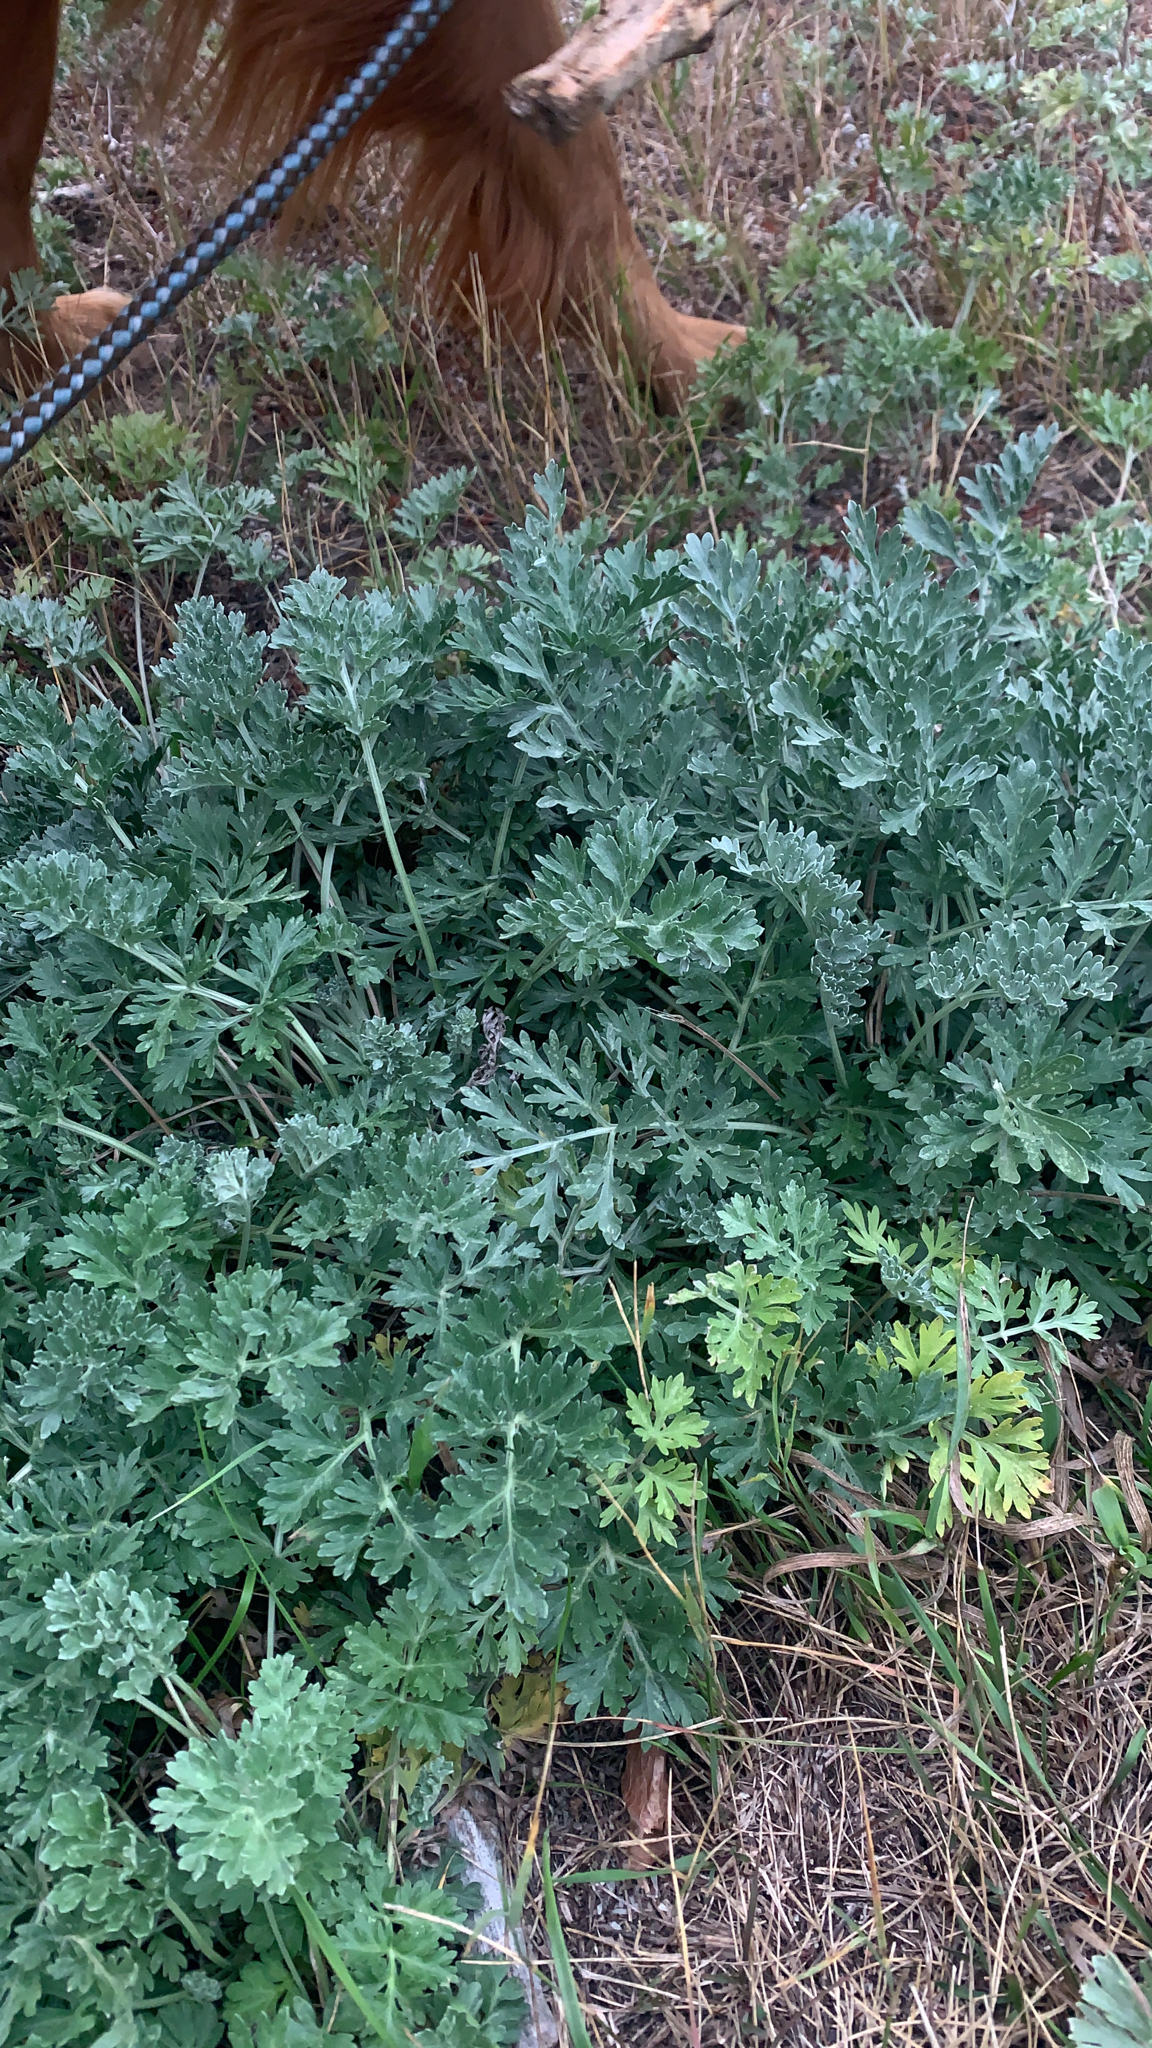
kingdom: Plantae
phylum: Tracheophyta
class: Magnoliopsida
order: Asterales
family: Asteraceae
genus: Artemisia
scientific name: Artemisia absinthium
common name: Wormwood
